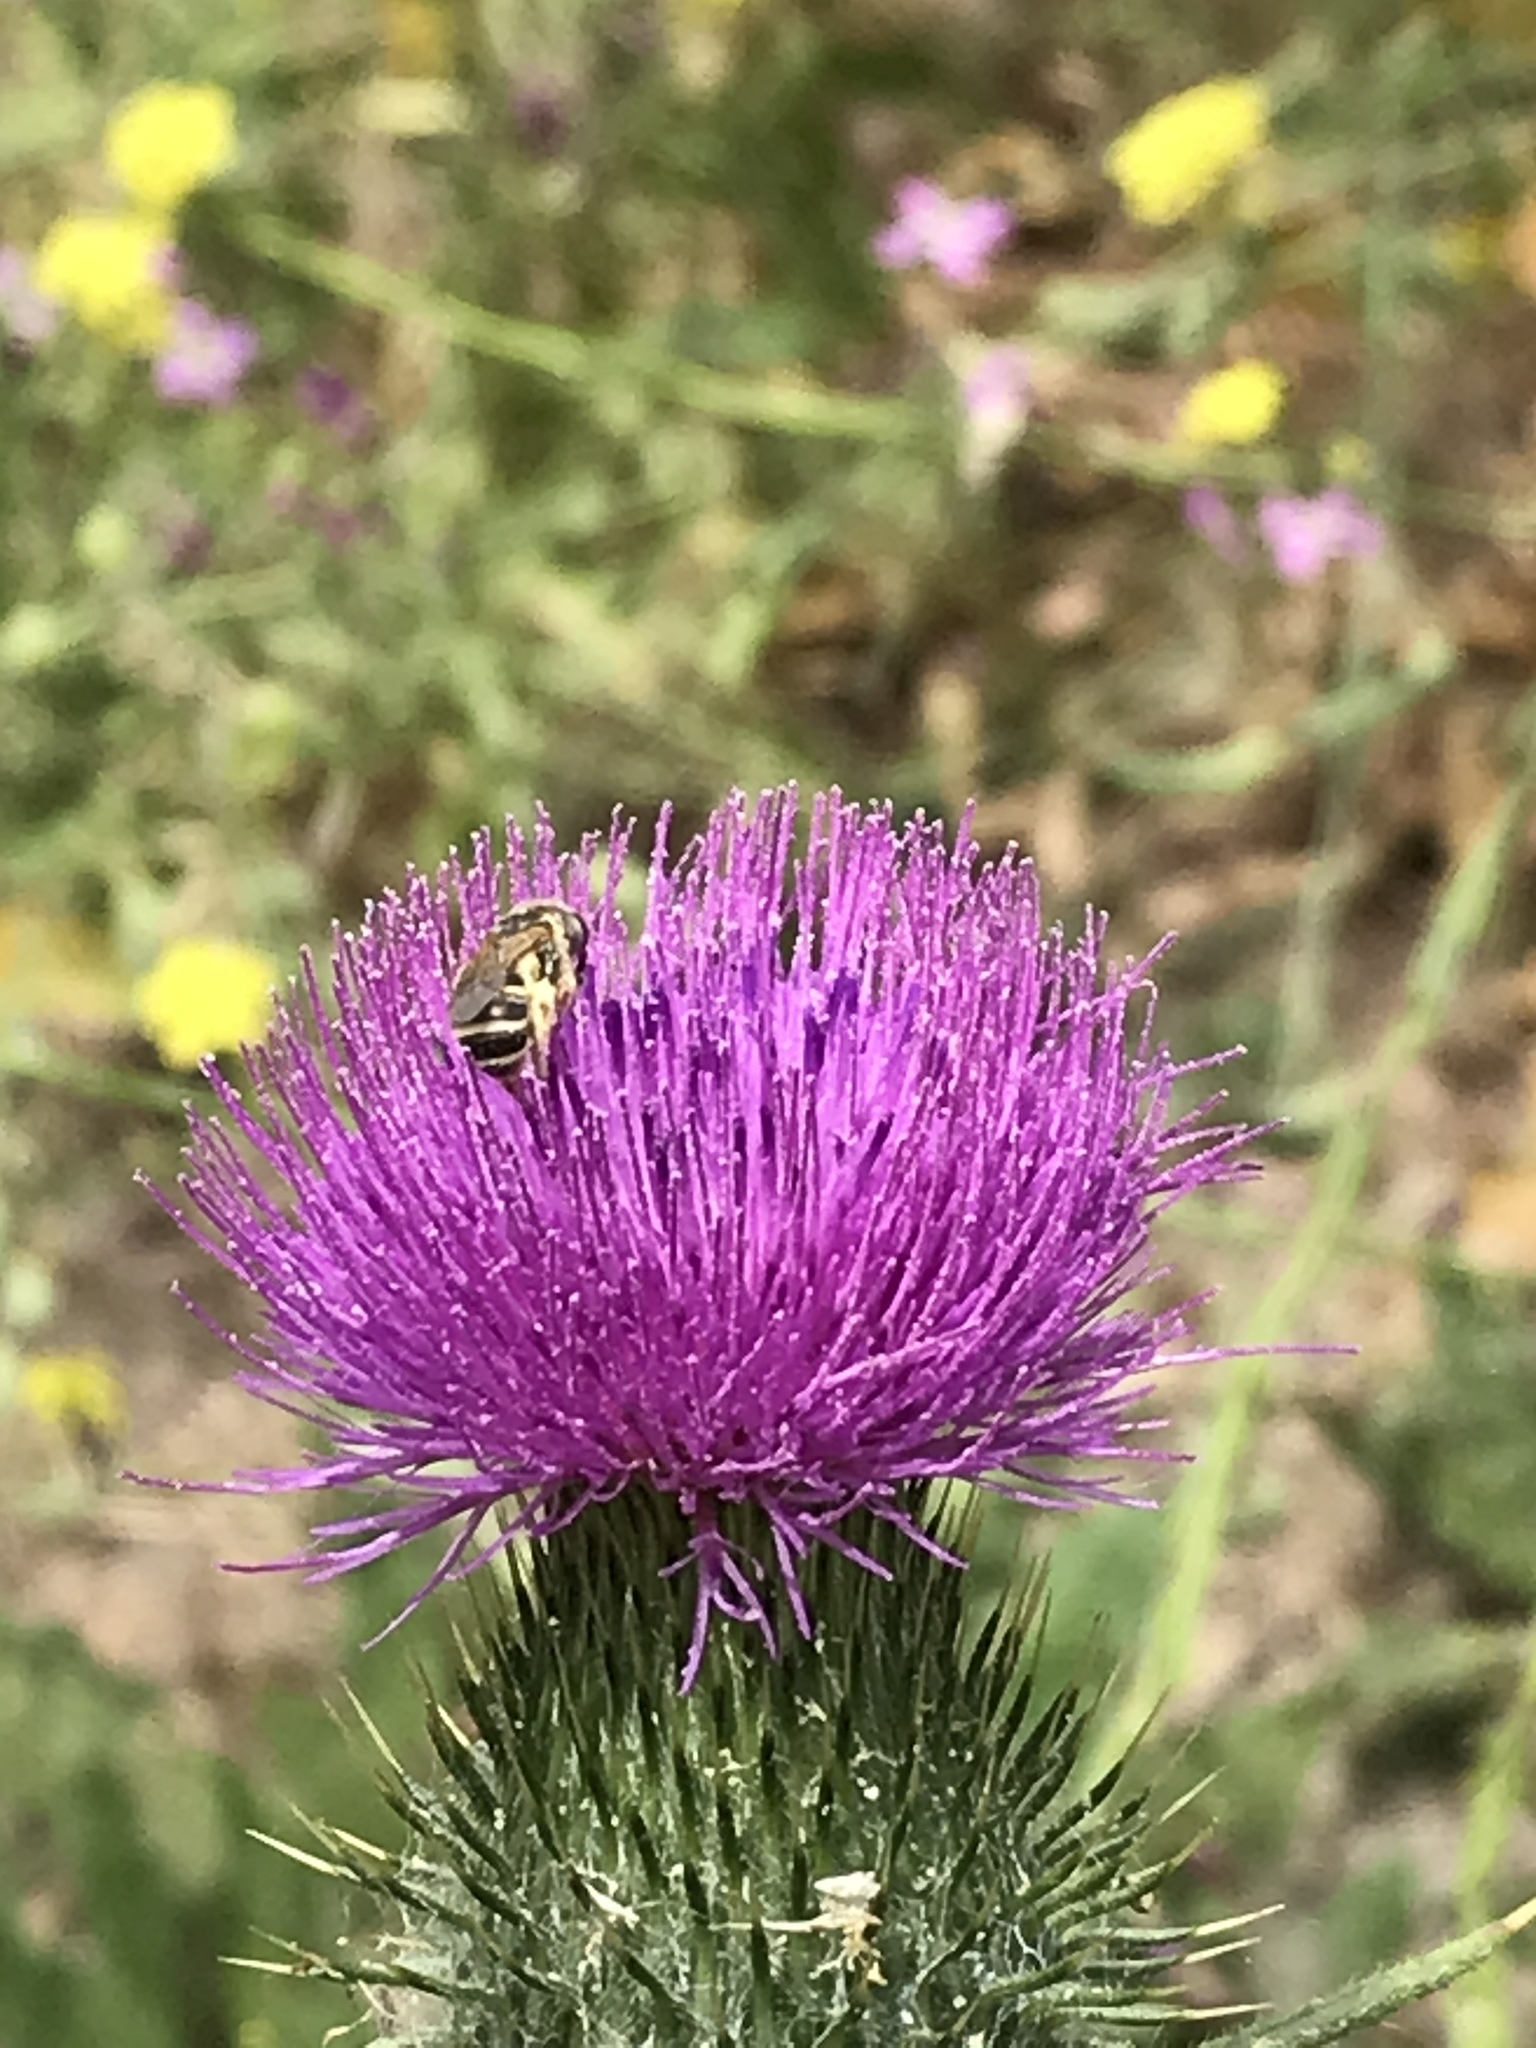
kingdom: Animalia
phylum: Arthropoda
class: Insecta
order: Hymenoptera
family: Halictidae
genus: Halictus
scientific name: Halictus ligatus
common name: Ligated furrow bee
